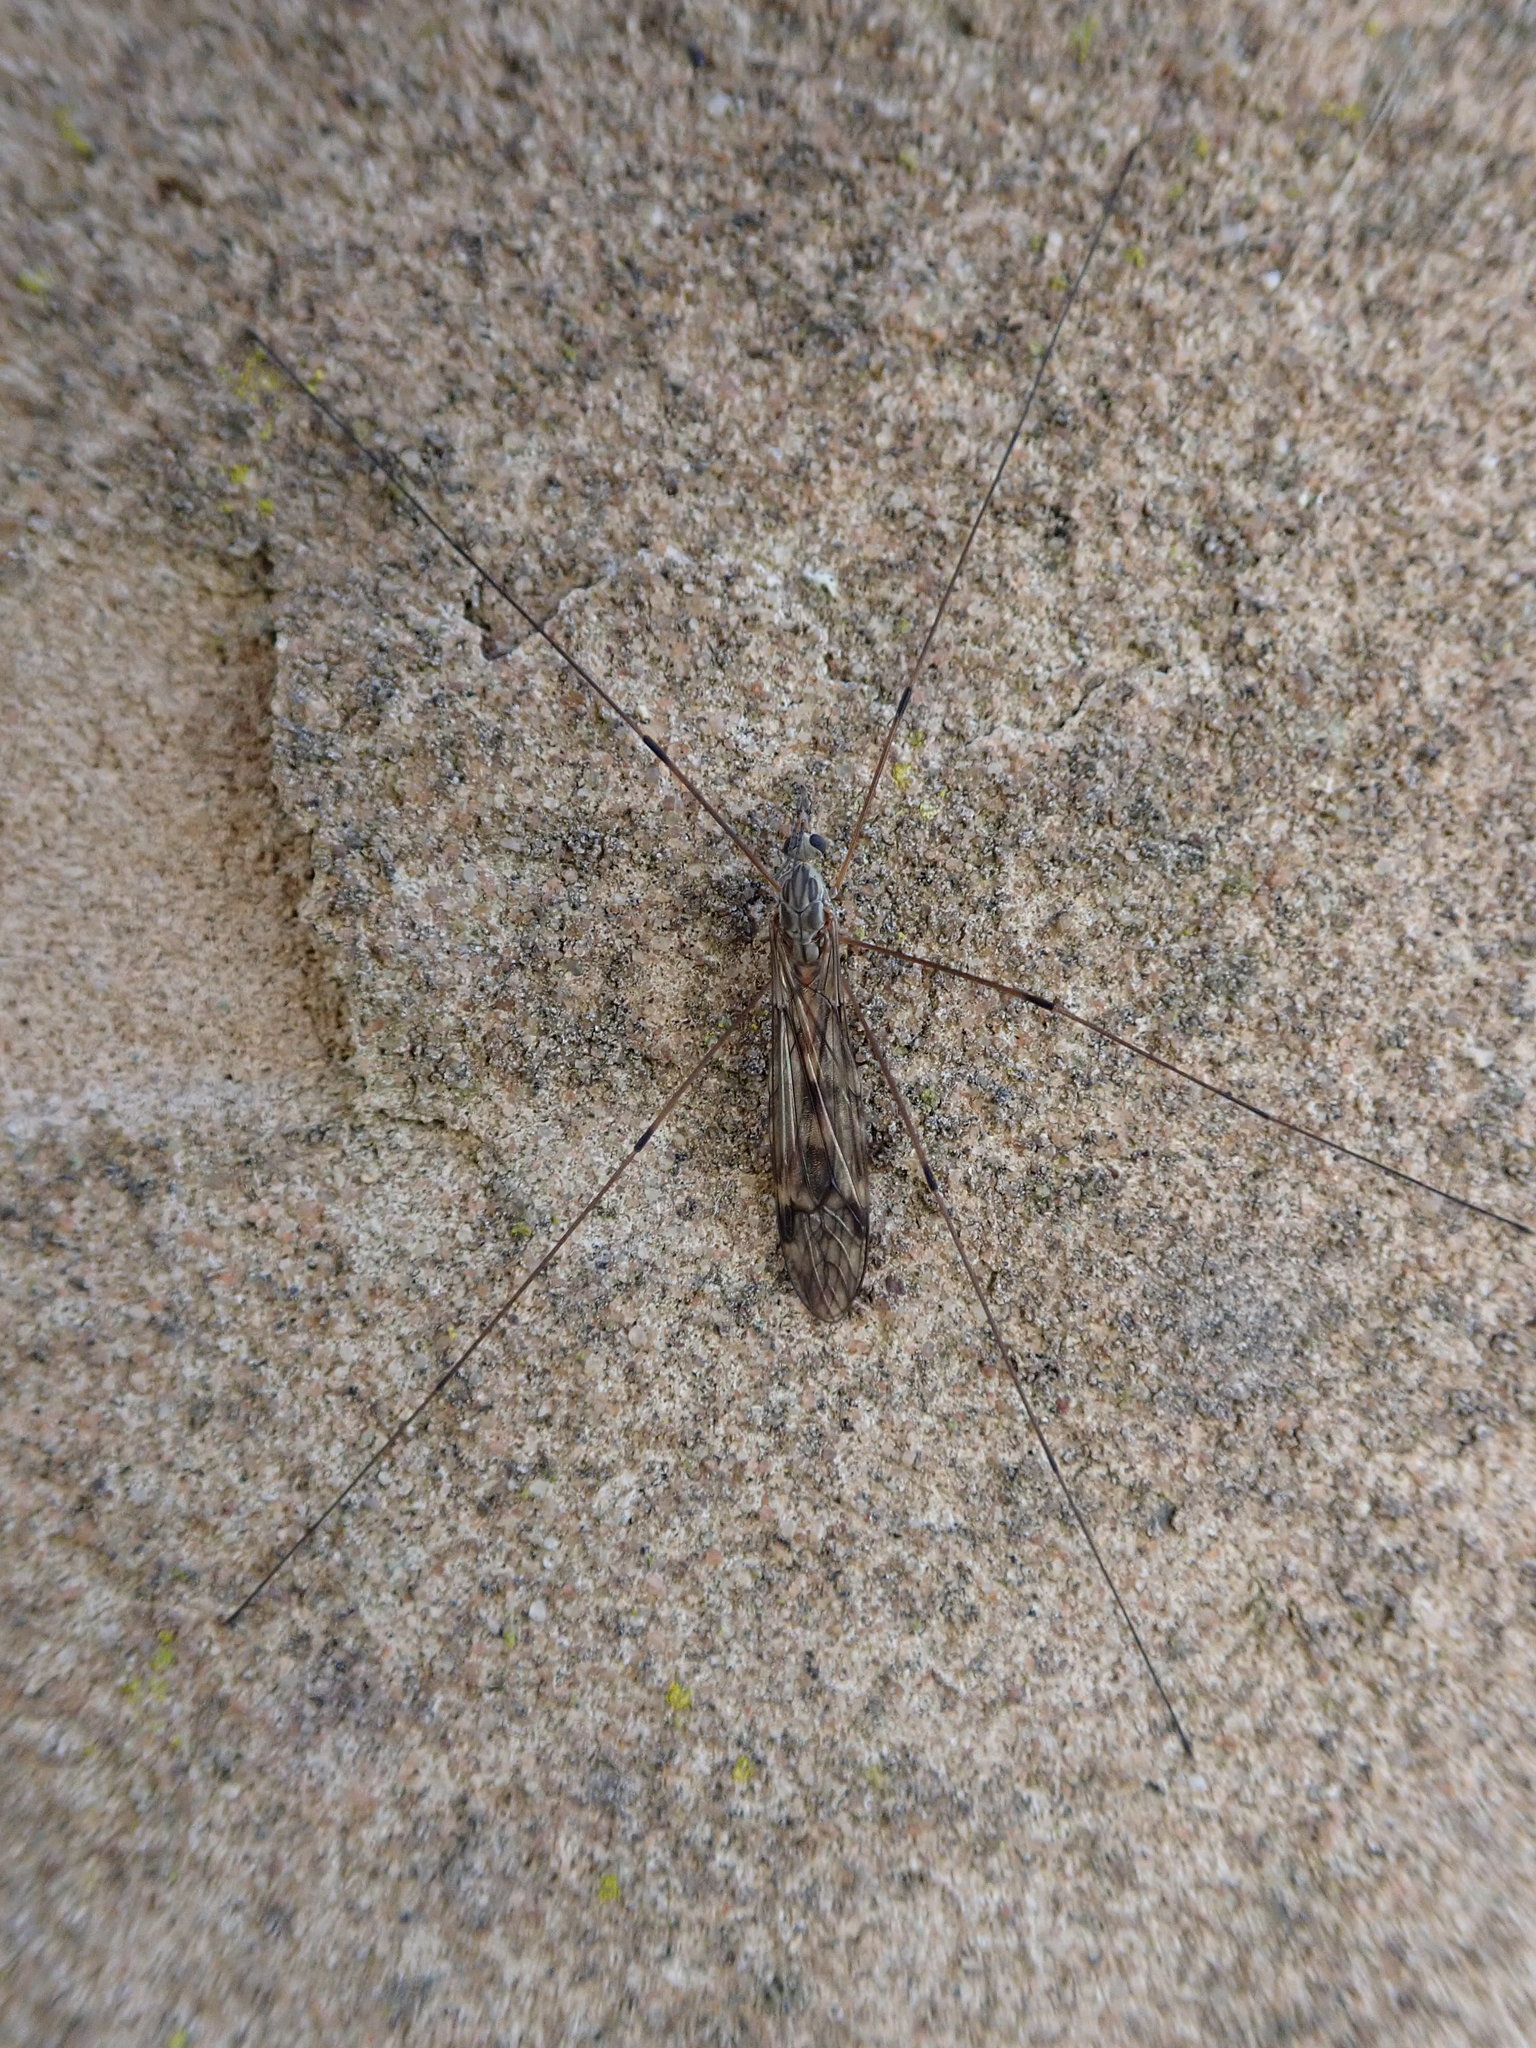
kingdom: Animalia
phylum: Arthropoda
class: Insecta
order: Diptera
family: Tipulidae
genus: Tipula
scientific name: Tipula rufina
